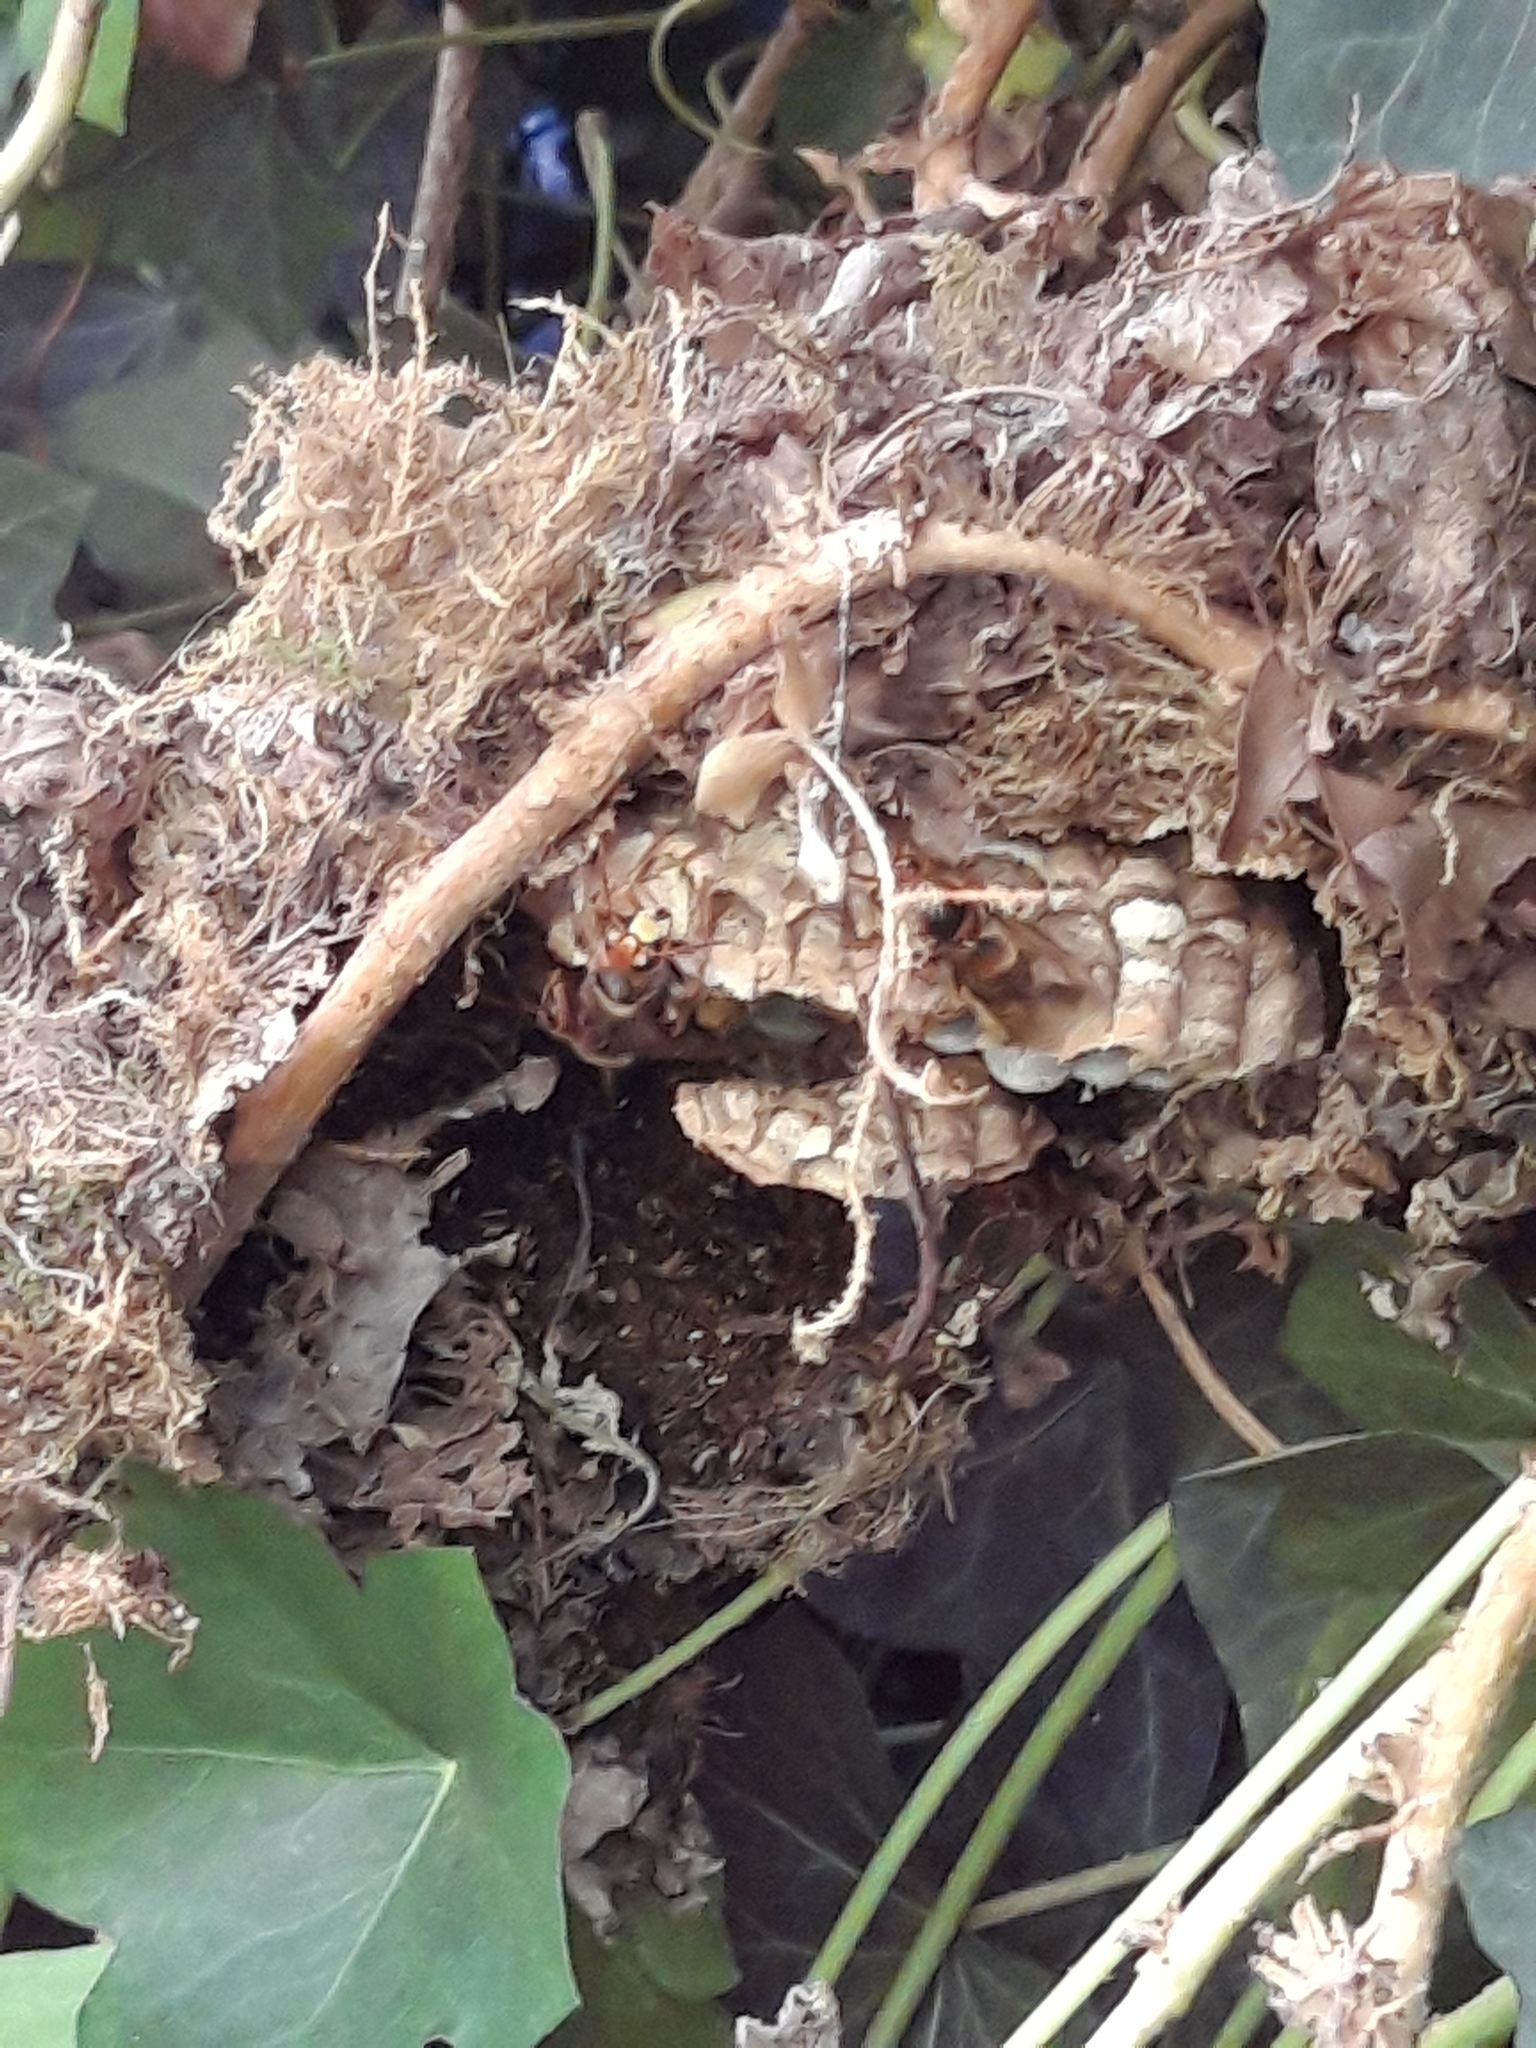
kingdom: Animalia
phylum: Arthropoda
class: Insecta
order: Hymenoptera
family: Vespidae
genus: Vespa
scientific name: Vespa crabro
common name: Hornet
